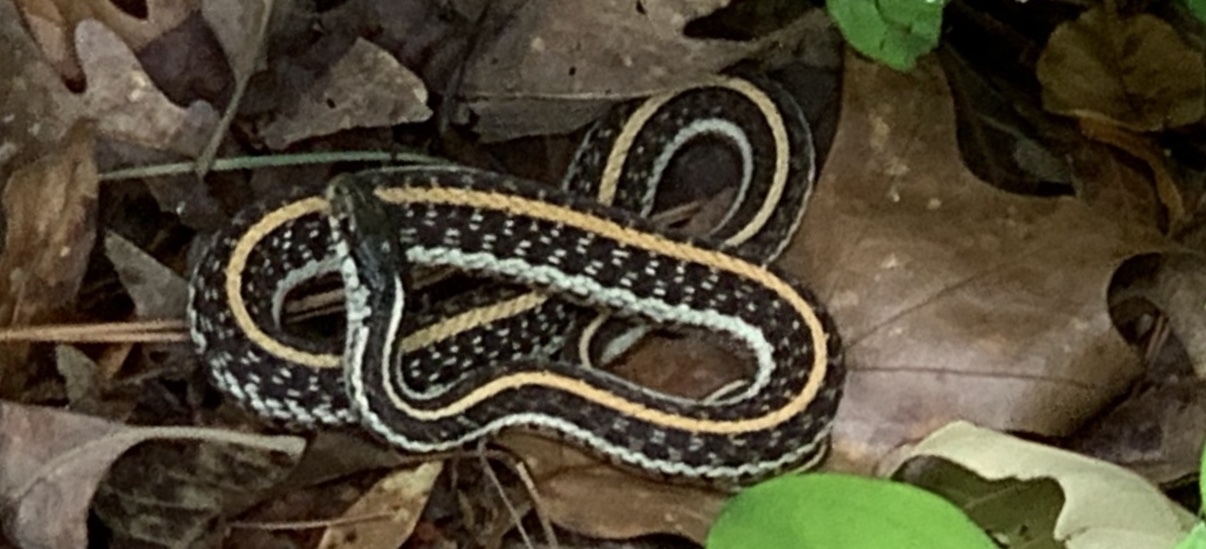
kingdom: Animalia
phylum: Chordata
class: Squamata
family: Colubridae
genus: Thamnophis
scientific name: Thamnophis sirtalis
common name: Common garter snake
